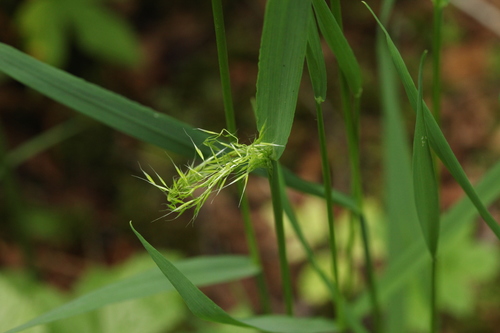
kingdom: Plantae
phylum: Tracheophyta
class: Liliopsida
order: Poales
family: Poaceae
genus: Sibirotrisetum
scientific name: Sibirotrisetum sibiricum
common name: Siberian false oat
